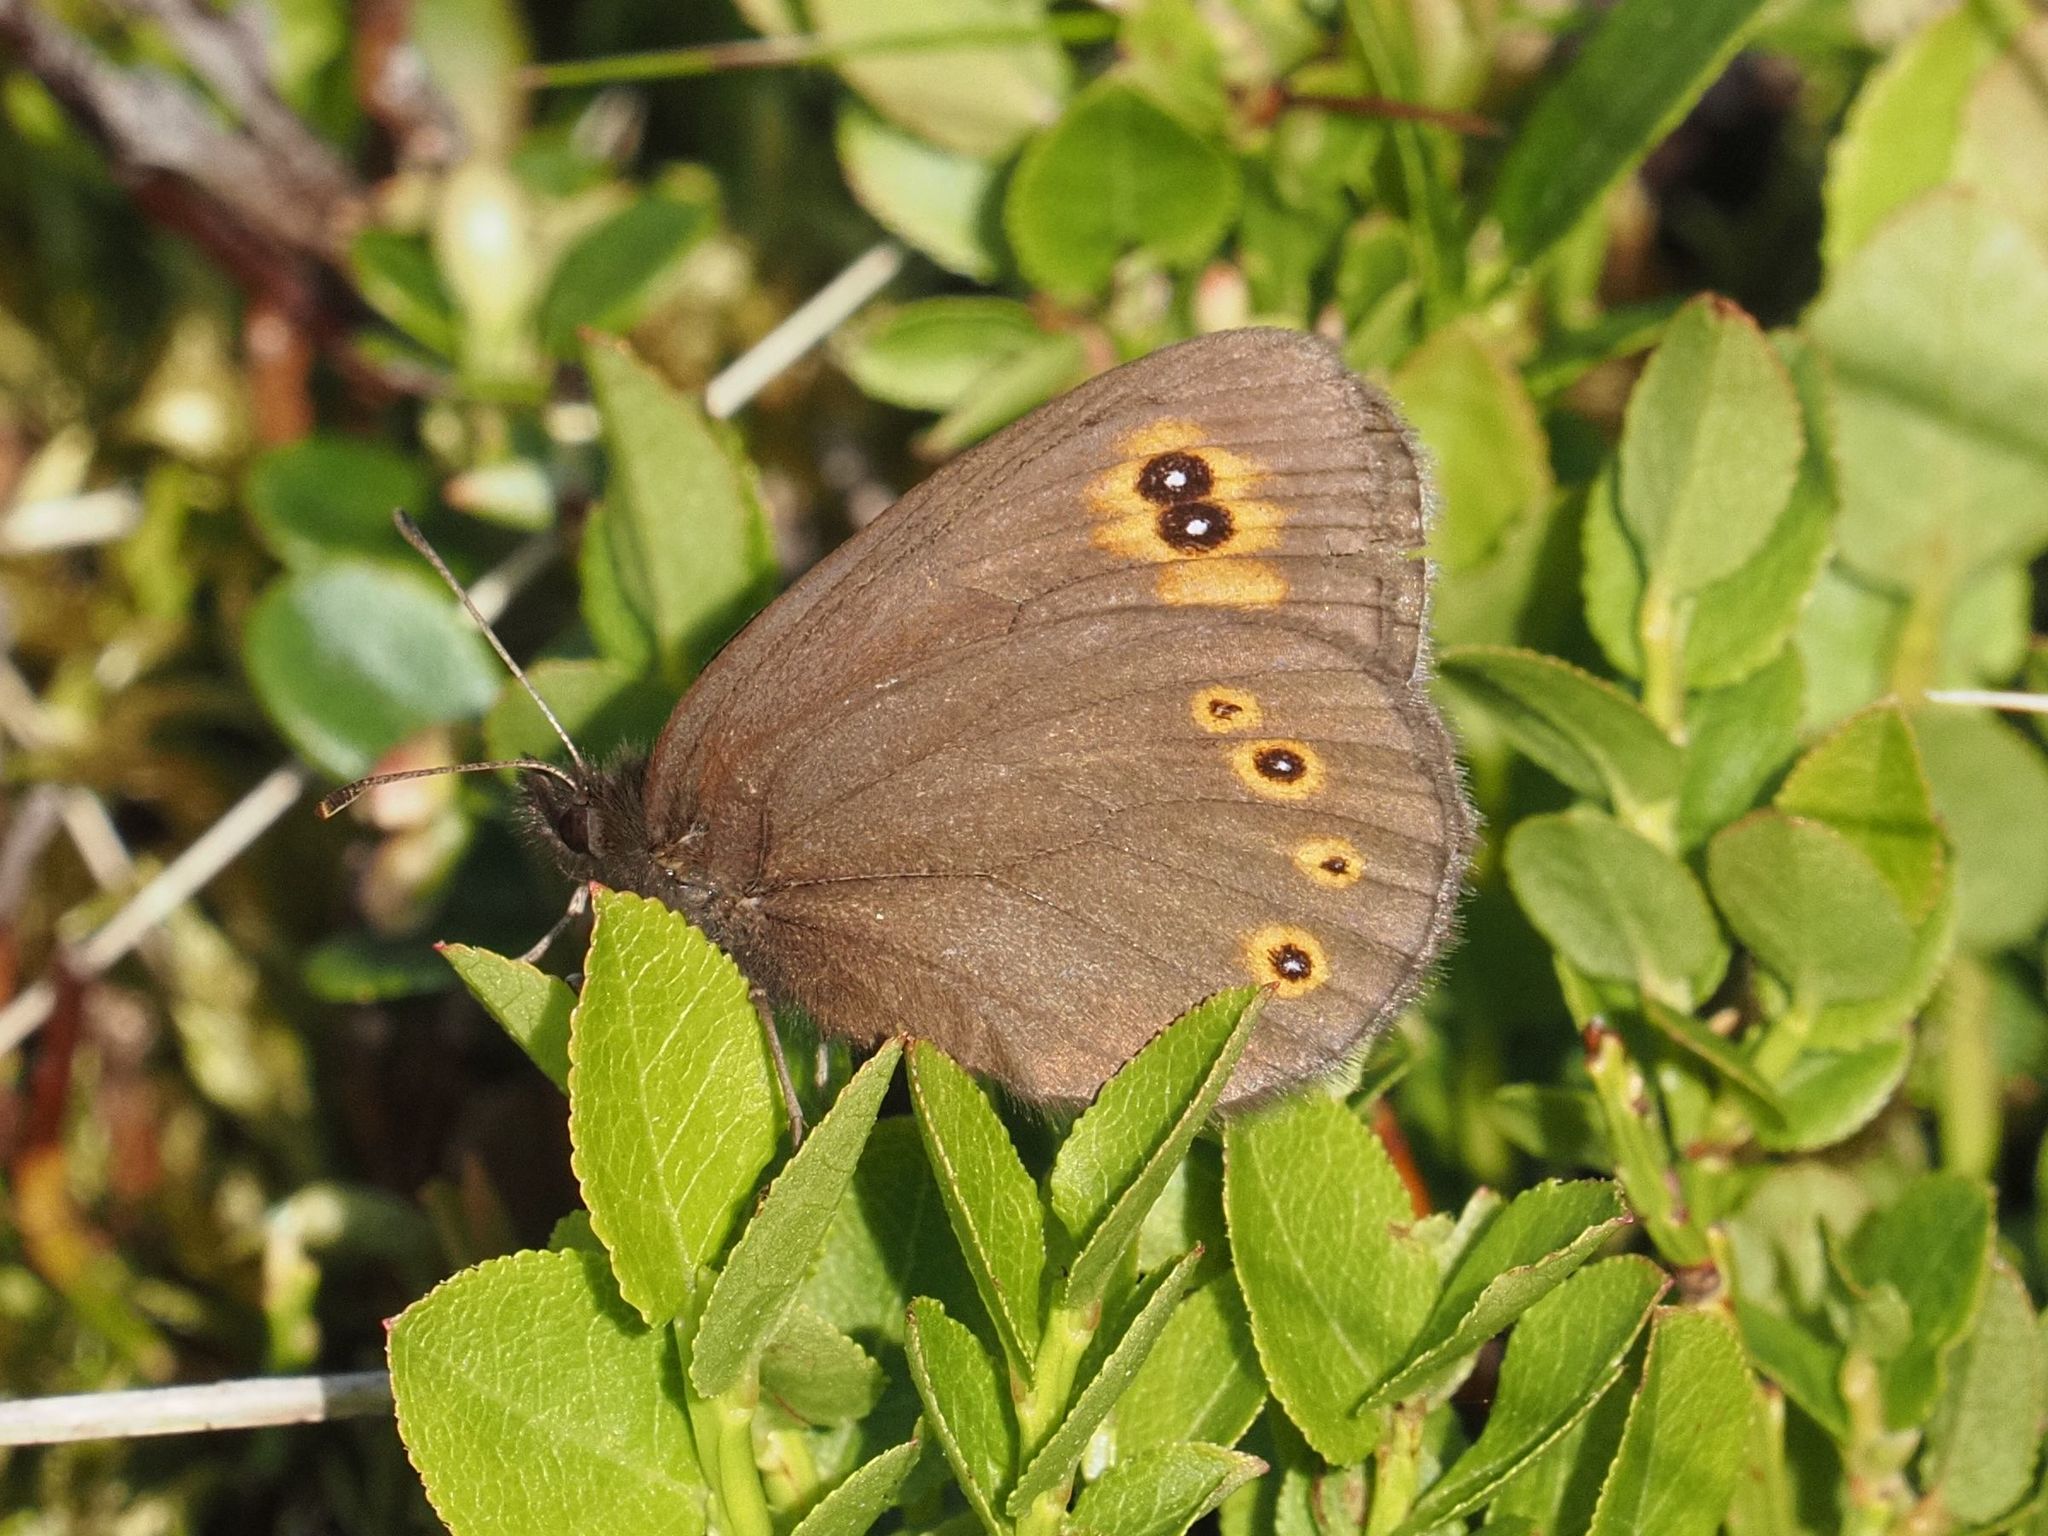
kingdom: Animalia
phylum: Arthropoda
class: Insecta
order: Lepidoptera
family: Nymphalidae
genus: Erebia
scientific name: Erebia medusa
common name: Woodland ringlet
